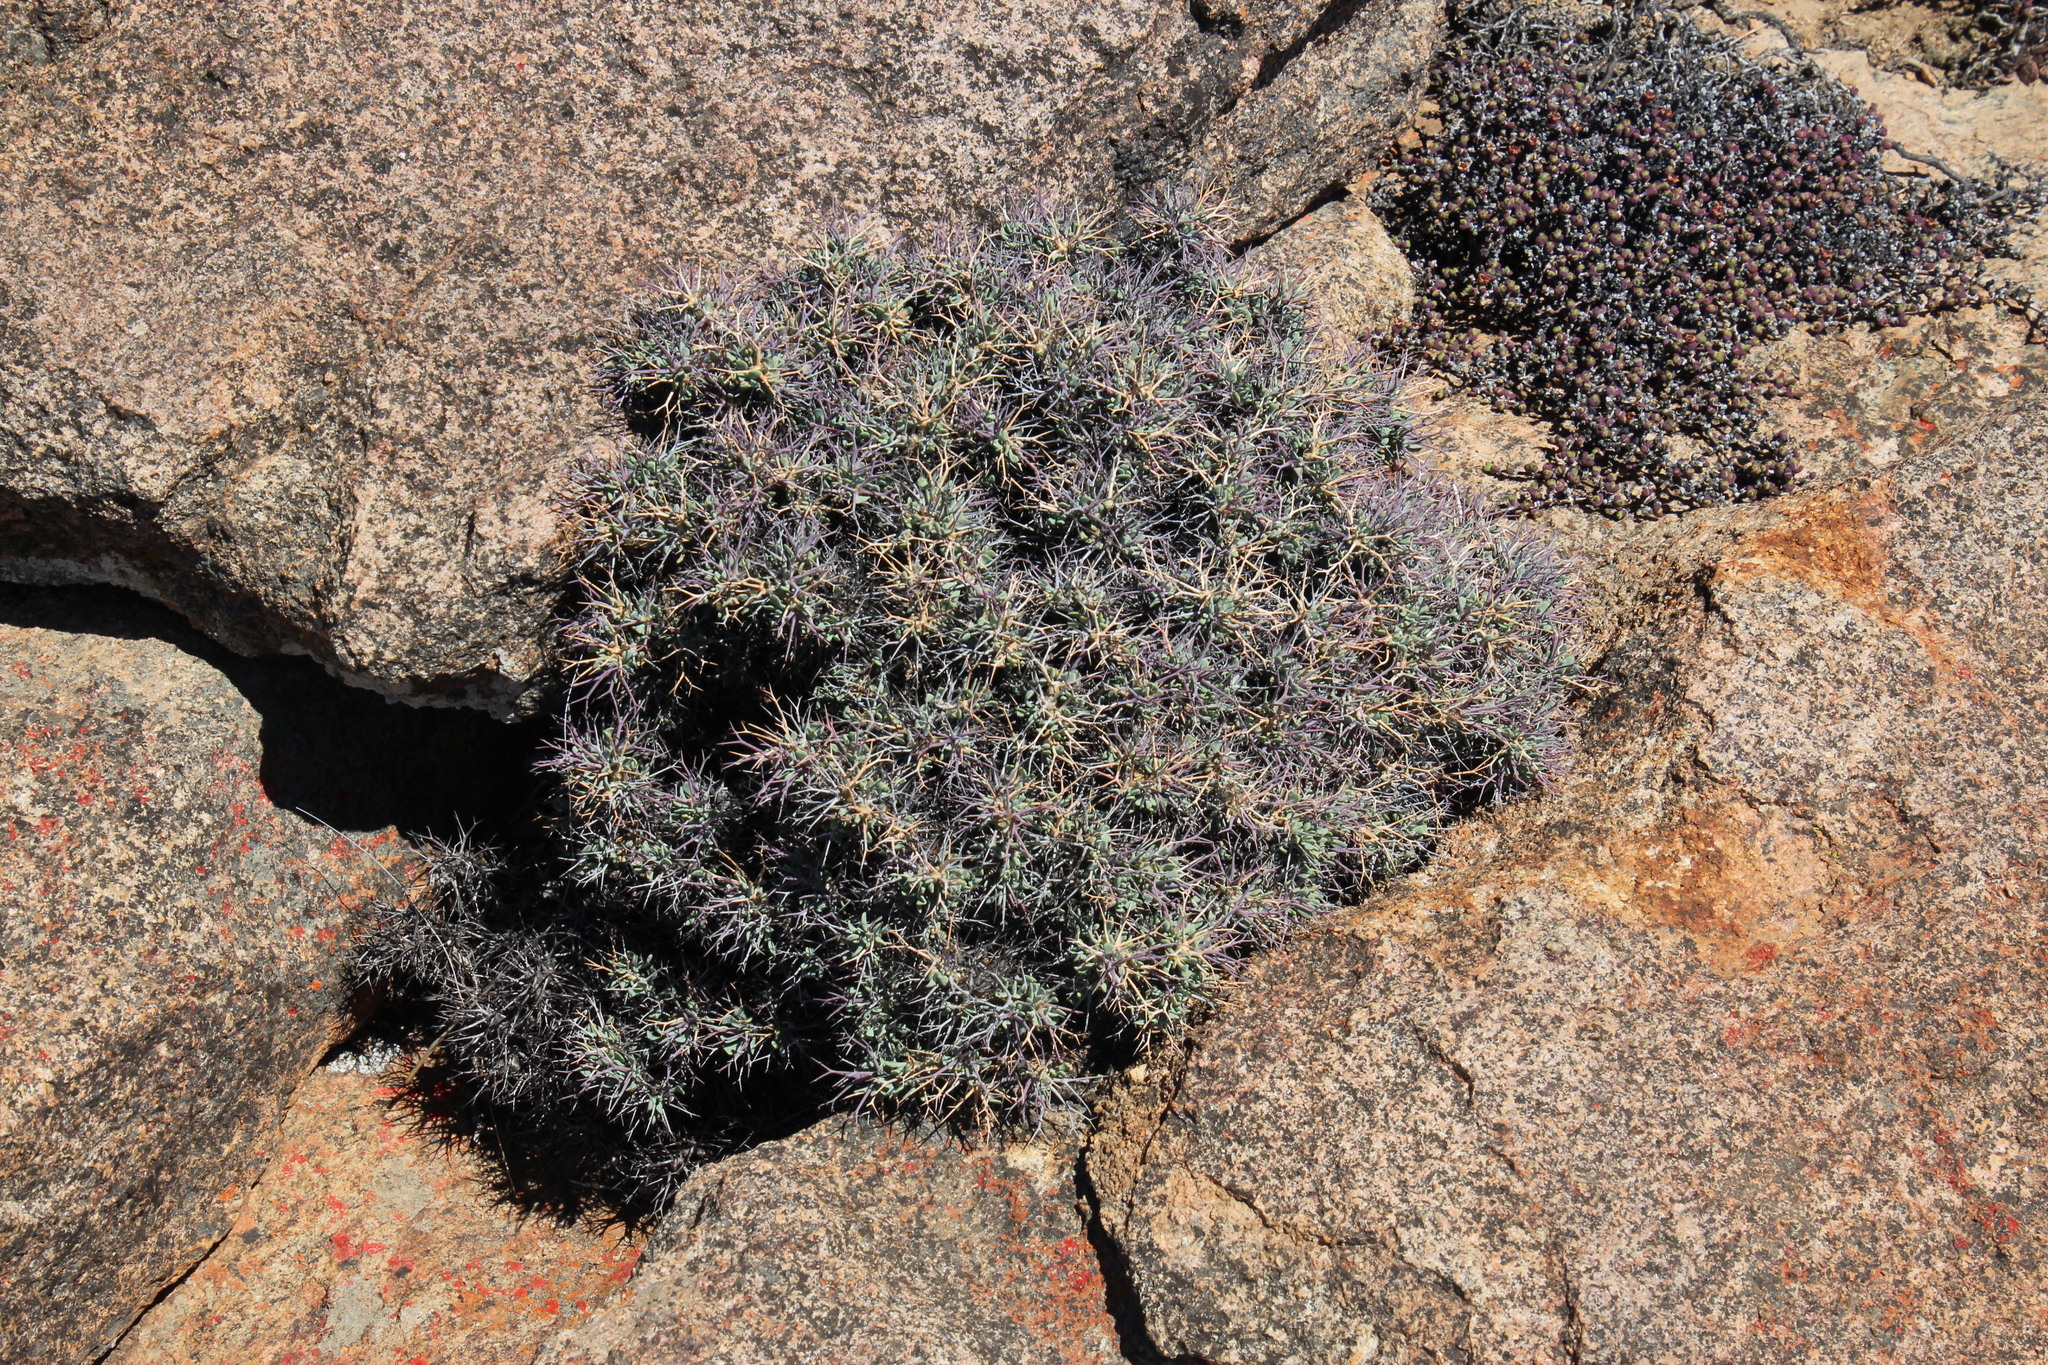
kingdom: Plantae
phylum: Tracheophyta
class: Magnoliopsida
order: Asterales
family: Asteraceae
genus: Othonna
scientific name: Othonna euphorbioides
